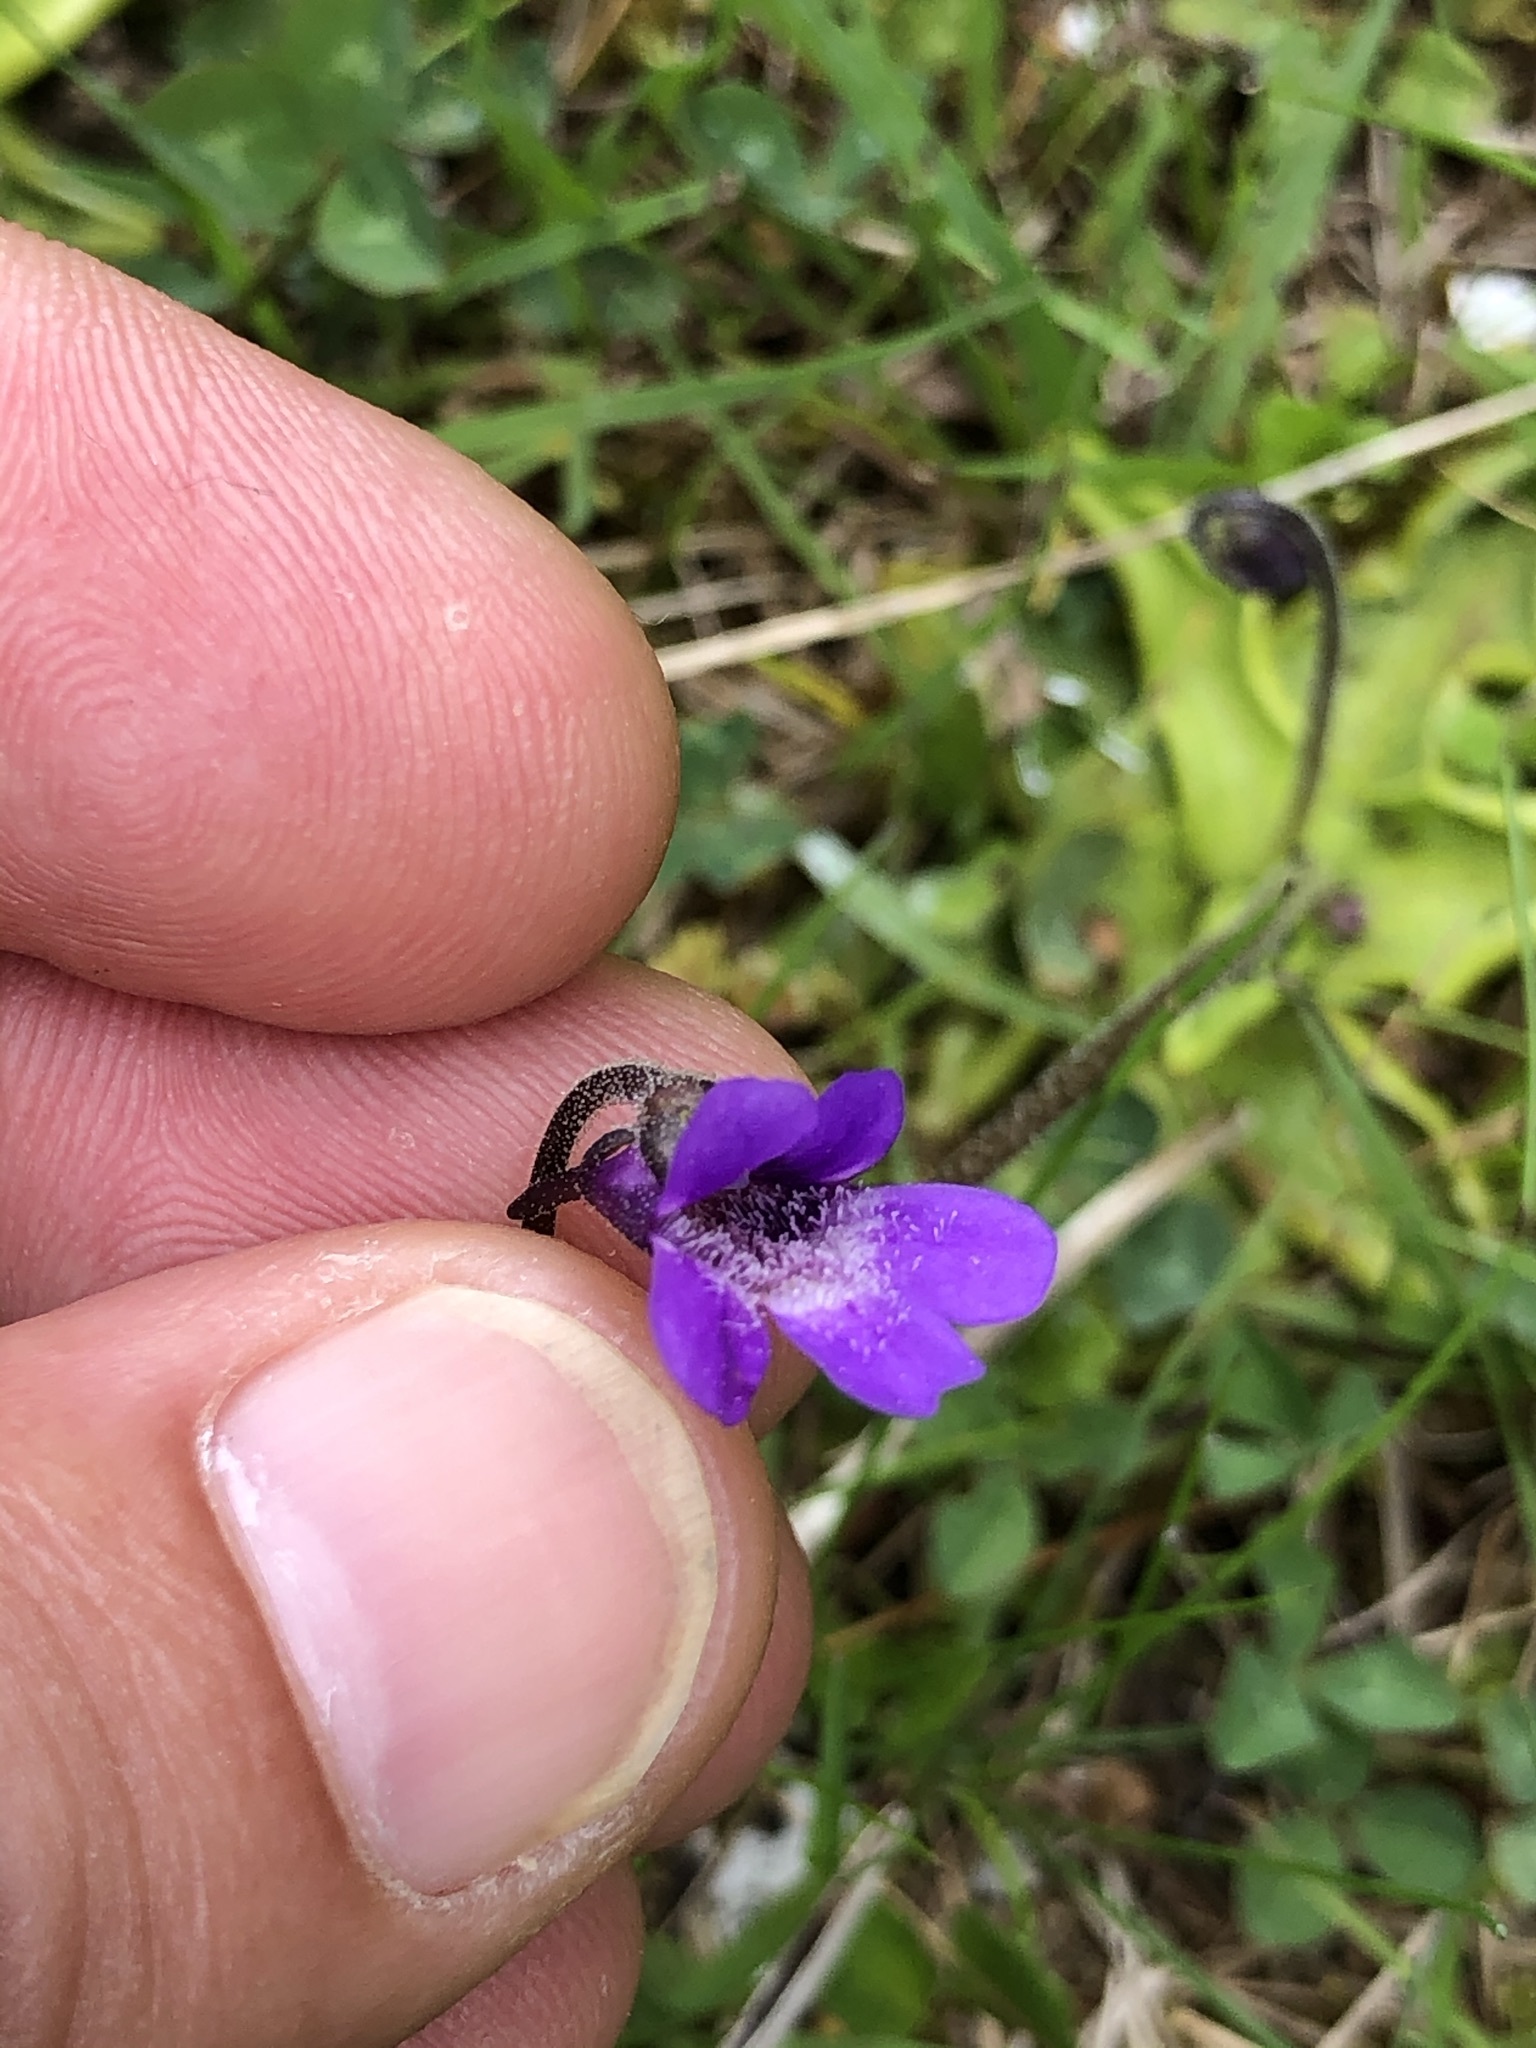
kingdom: Plantae
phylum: Tracheophyta
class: Magnoliopsida
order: Lamiales
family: Lentibulariaceae
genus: Pinguicula
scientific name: Pinguicula vulgaris
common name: Common butterwort
